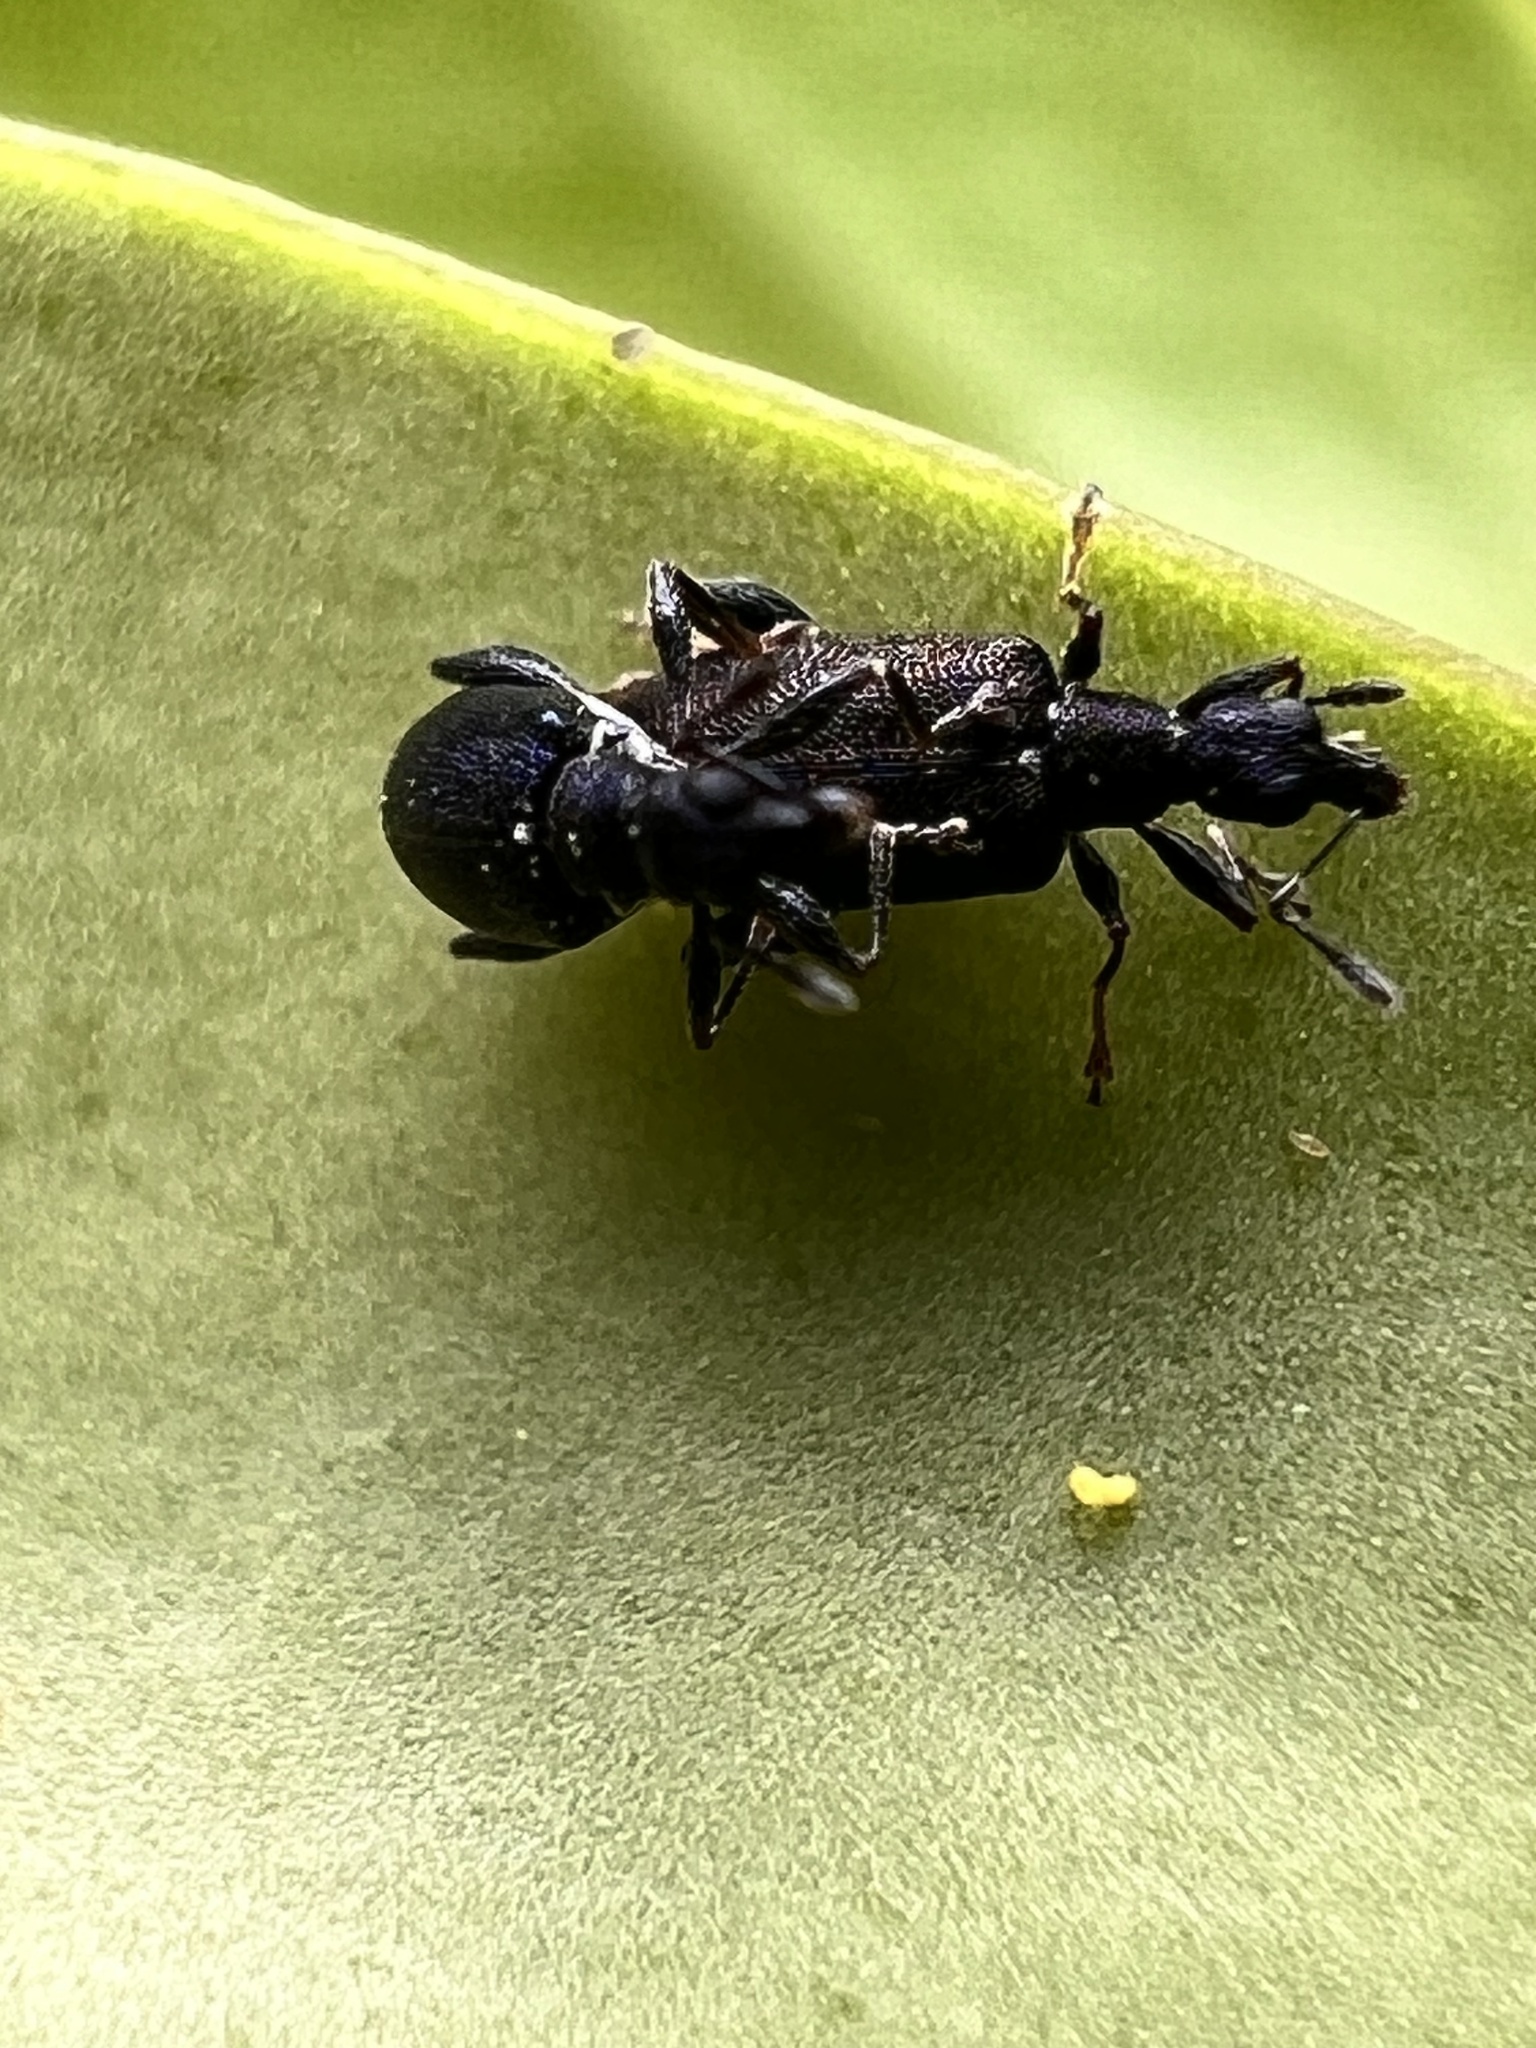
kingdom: Animalia
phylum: Arthropoda
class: Insecta
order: Coleoptera
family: Curculionidae
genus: Hoplocneme
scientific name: Hoplocneme punctatissima
